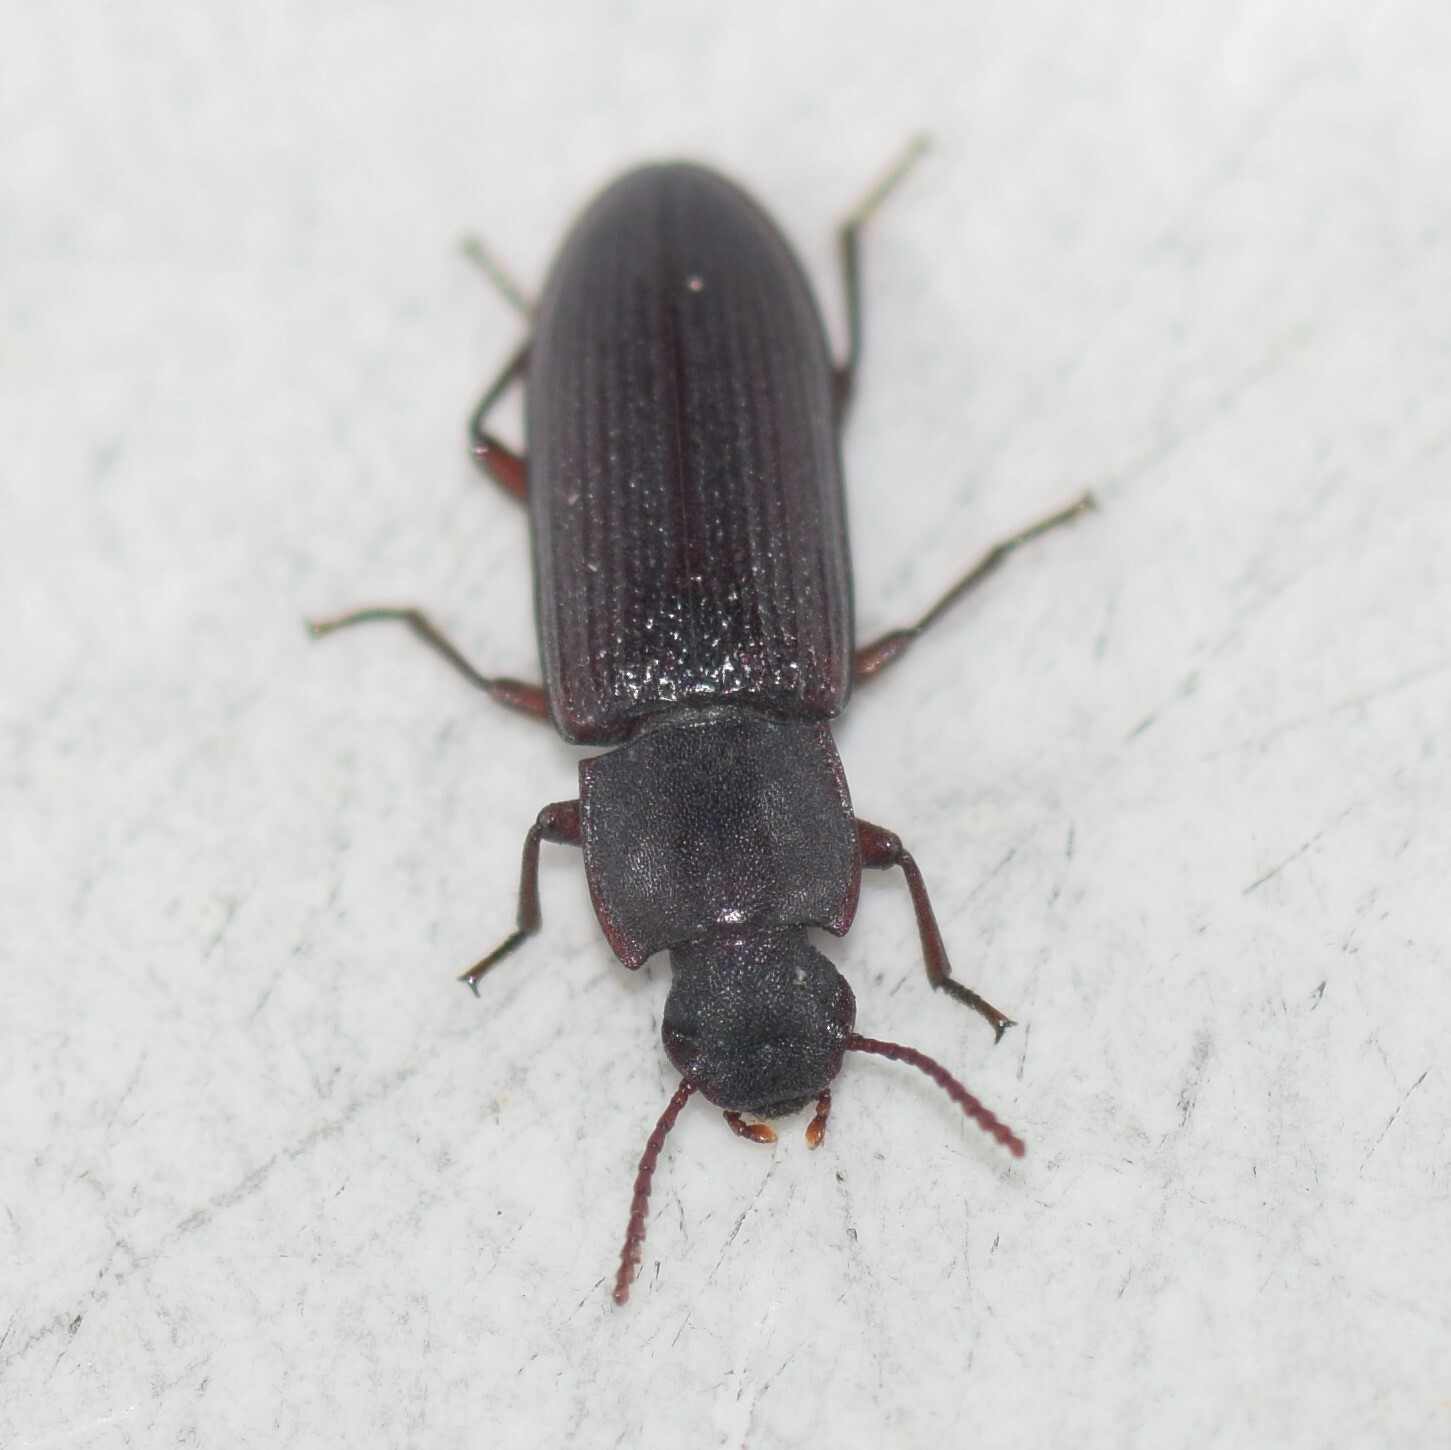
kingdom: Animalia
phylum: Arthropoda
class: Insecta
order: Coleoptera
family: Tenebrionidae
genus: Idiobates
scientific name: Idiobates castaneus
